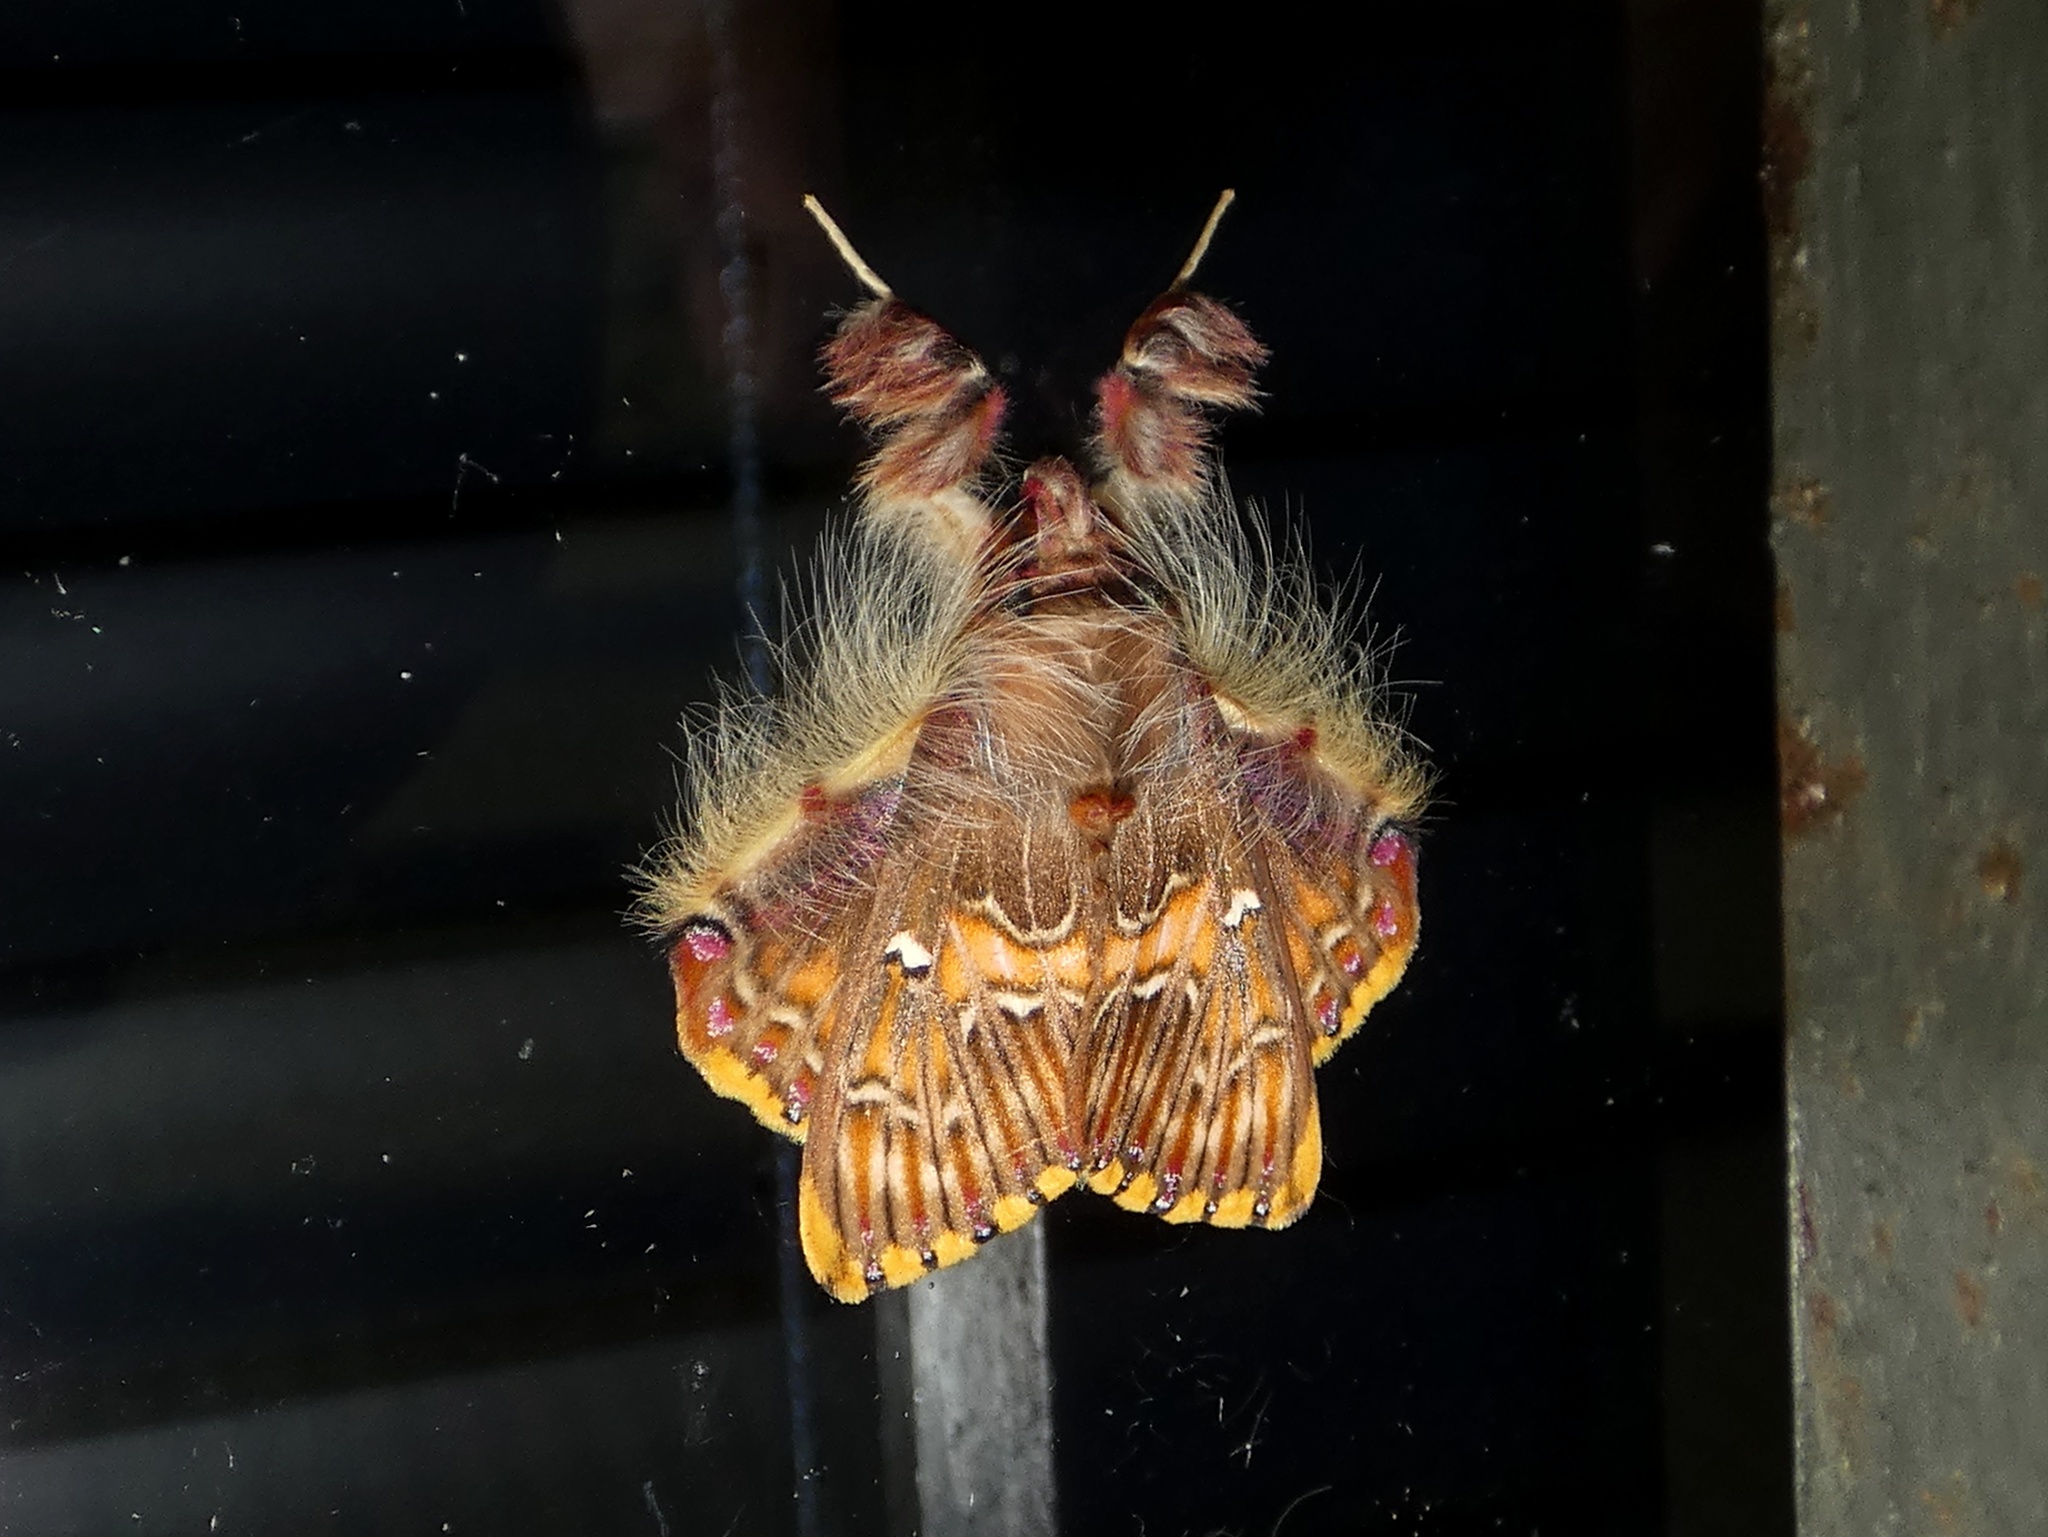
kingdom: Animalia
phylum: Arthropoda
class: Insecta
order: Lepidoptera
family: Erebidae
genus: Sosxetra
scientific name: Sosxetra grata
